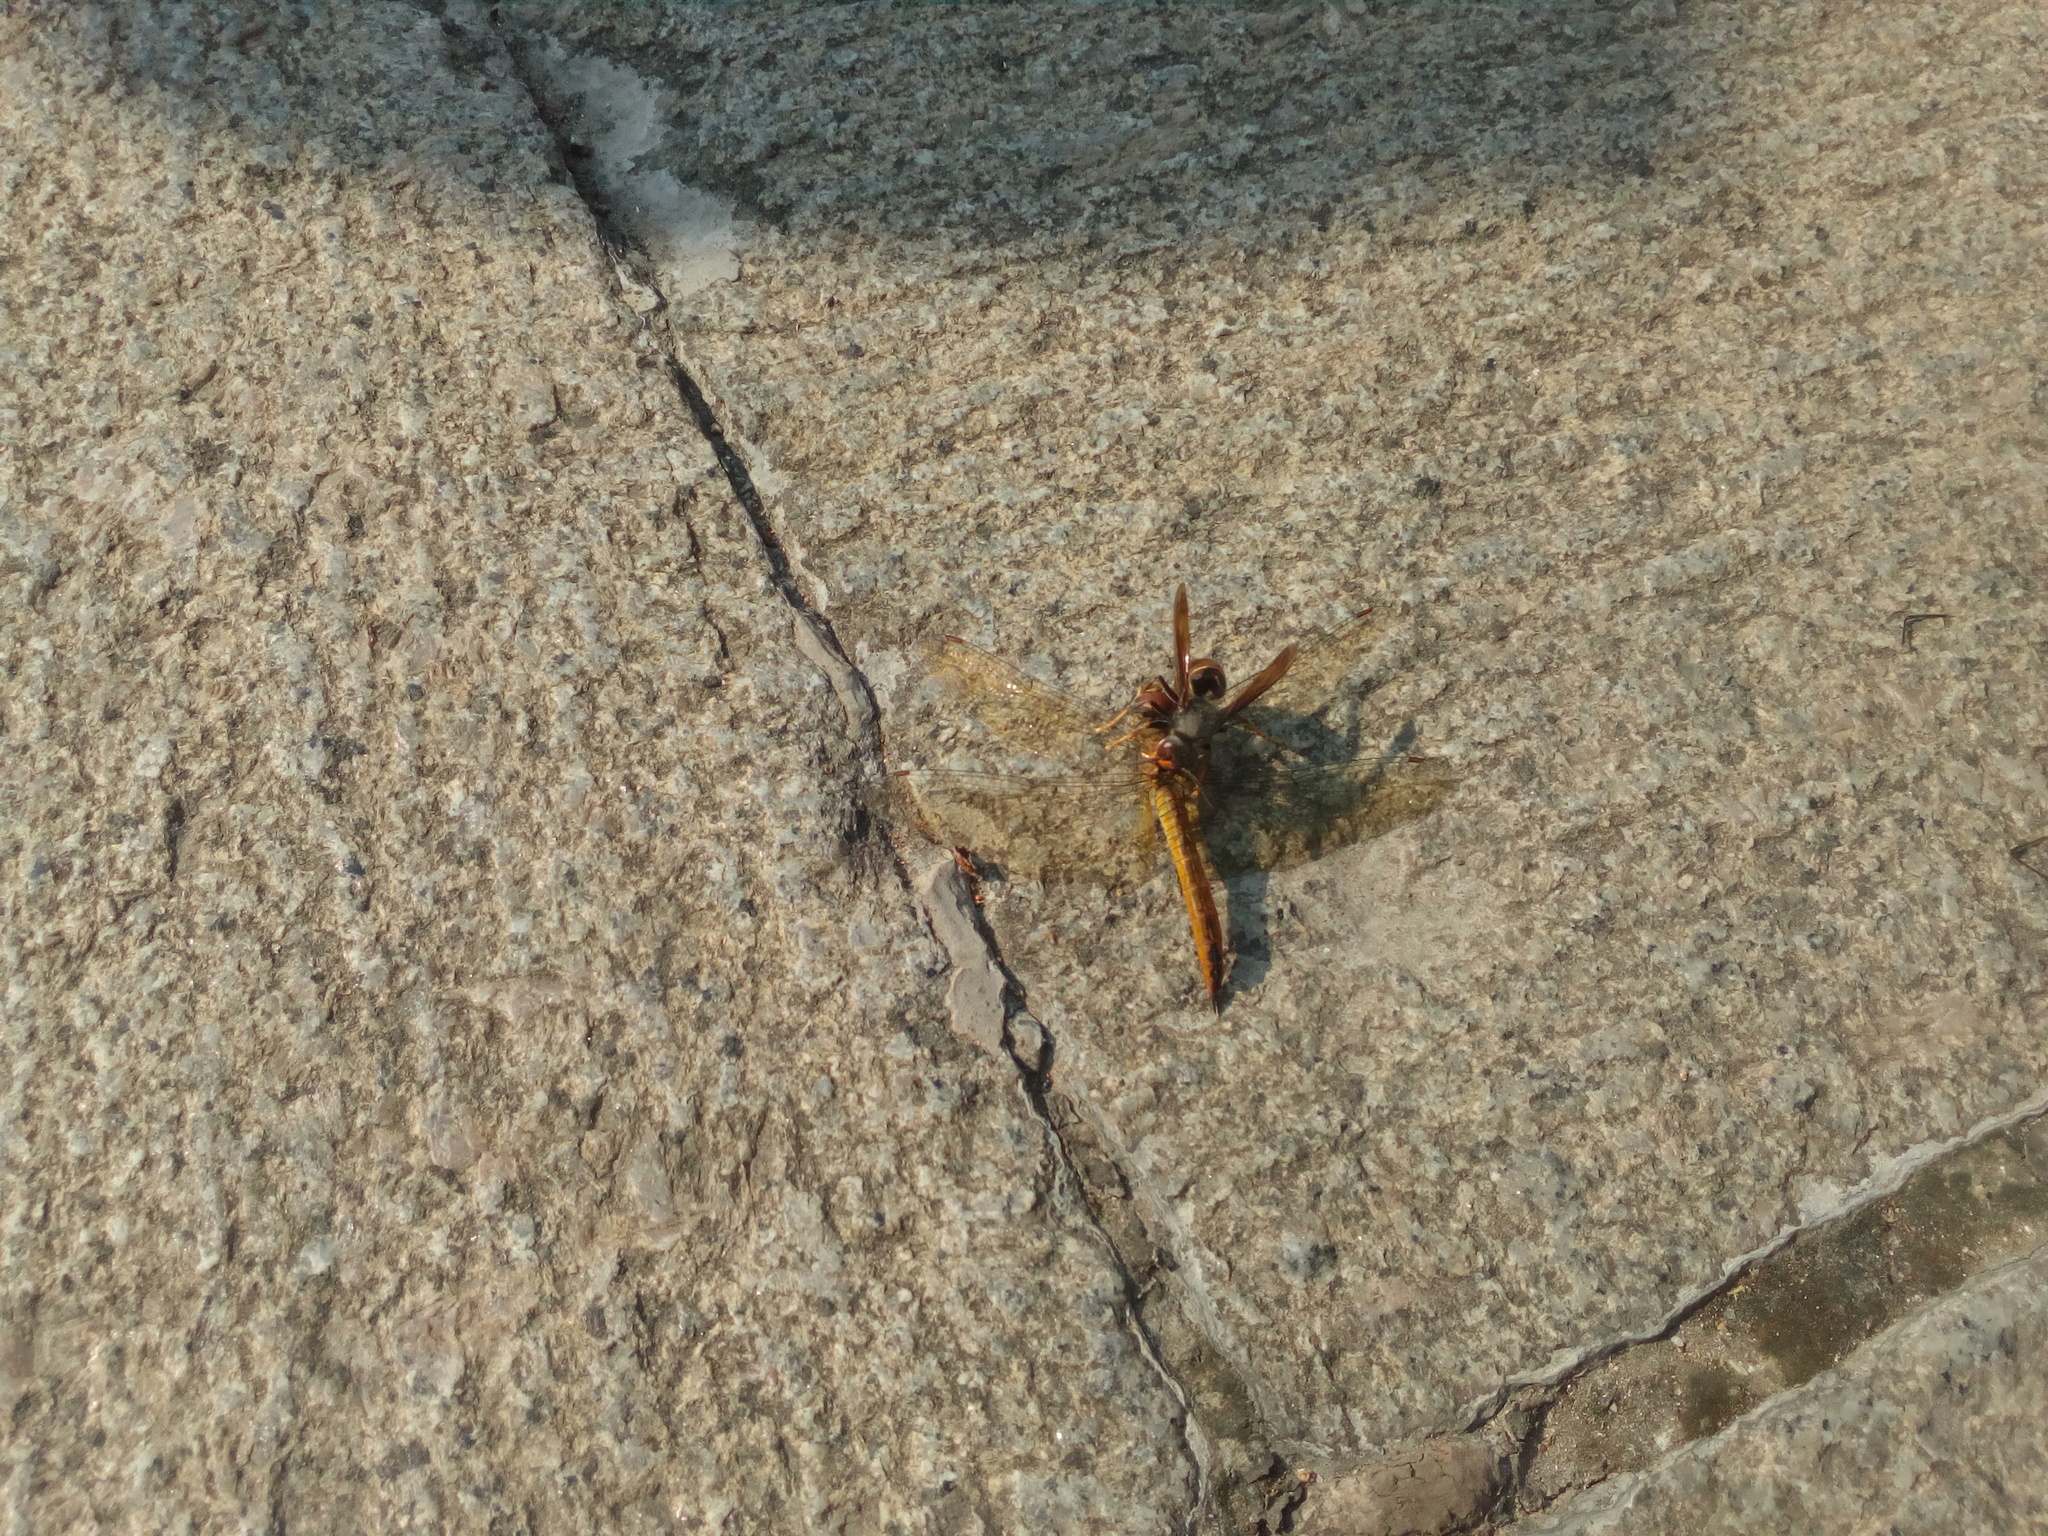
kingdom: Animalia
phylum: Arthropoda
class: Insecta
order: Odonata
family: Libellulidae
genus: Pantala
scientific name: Pantala flavescens
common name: Wandering glider
